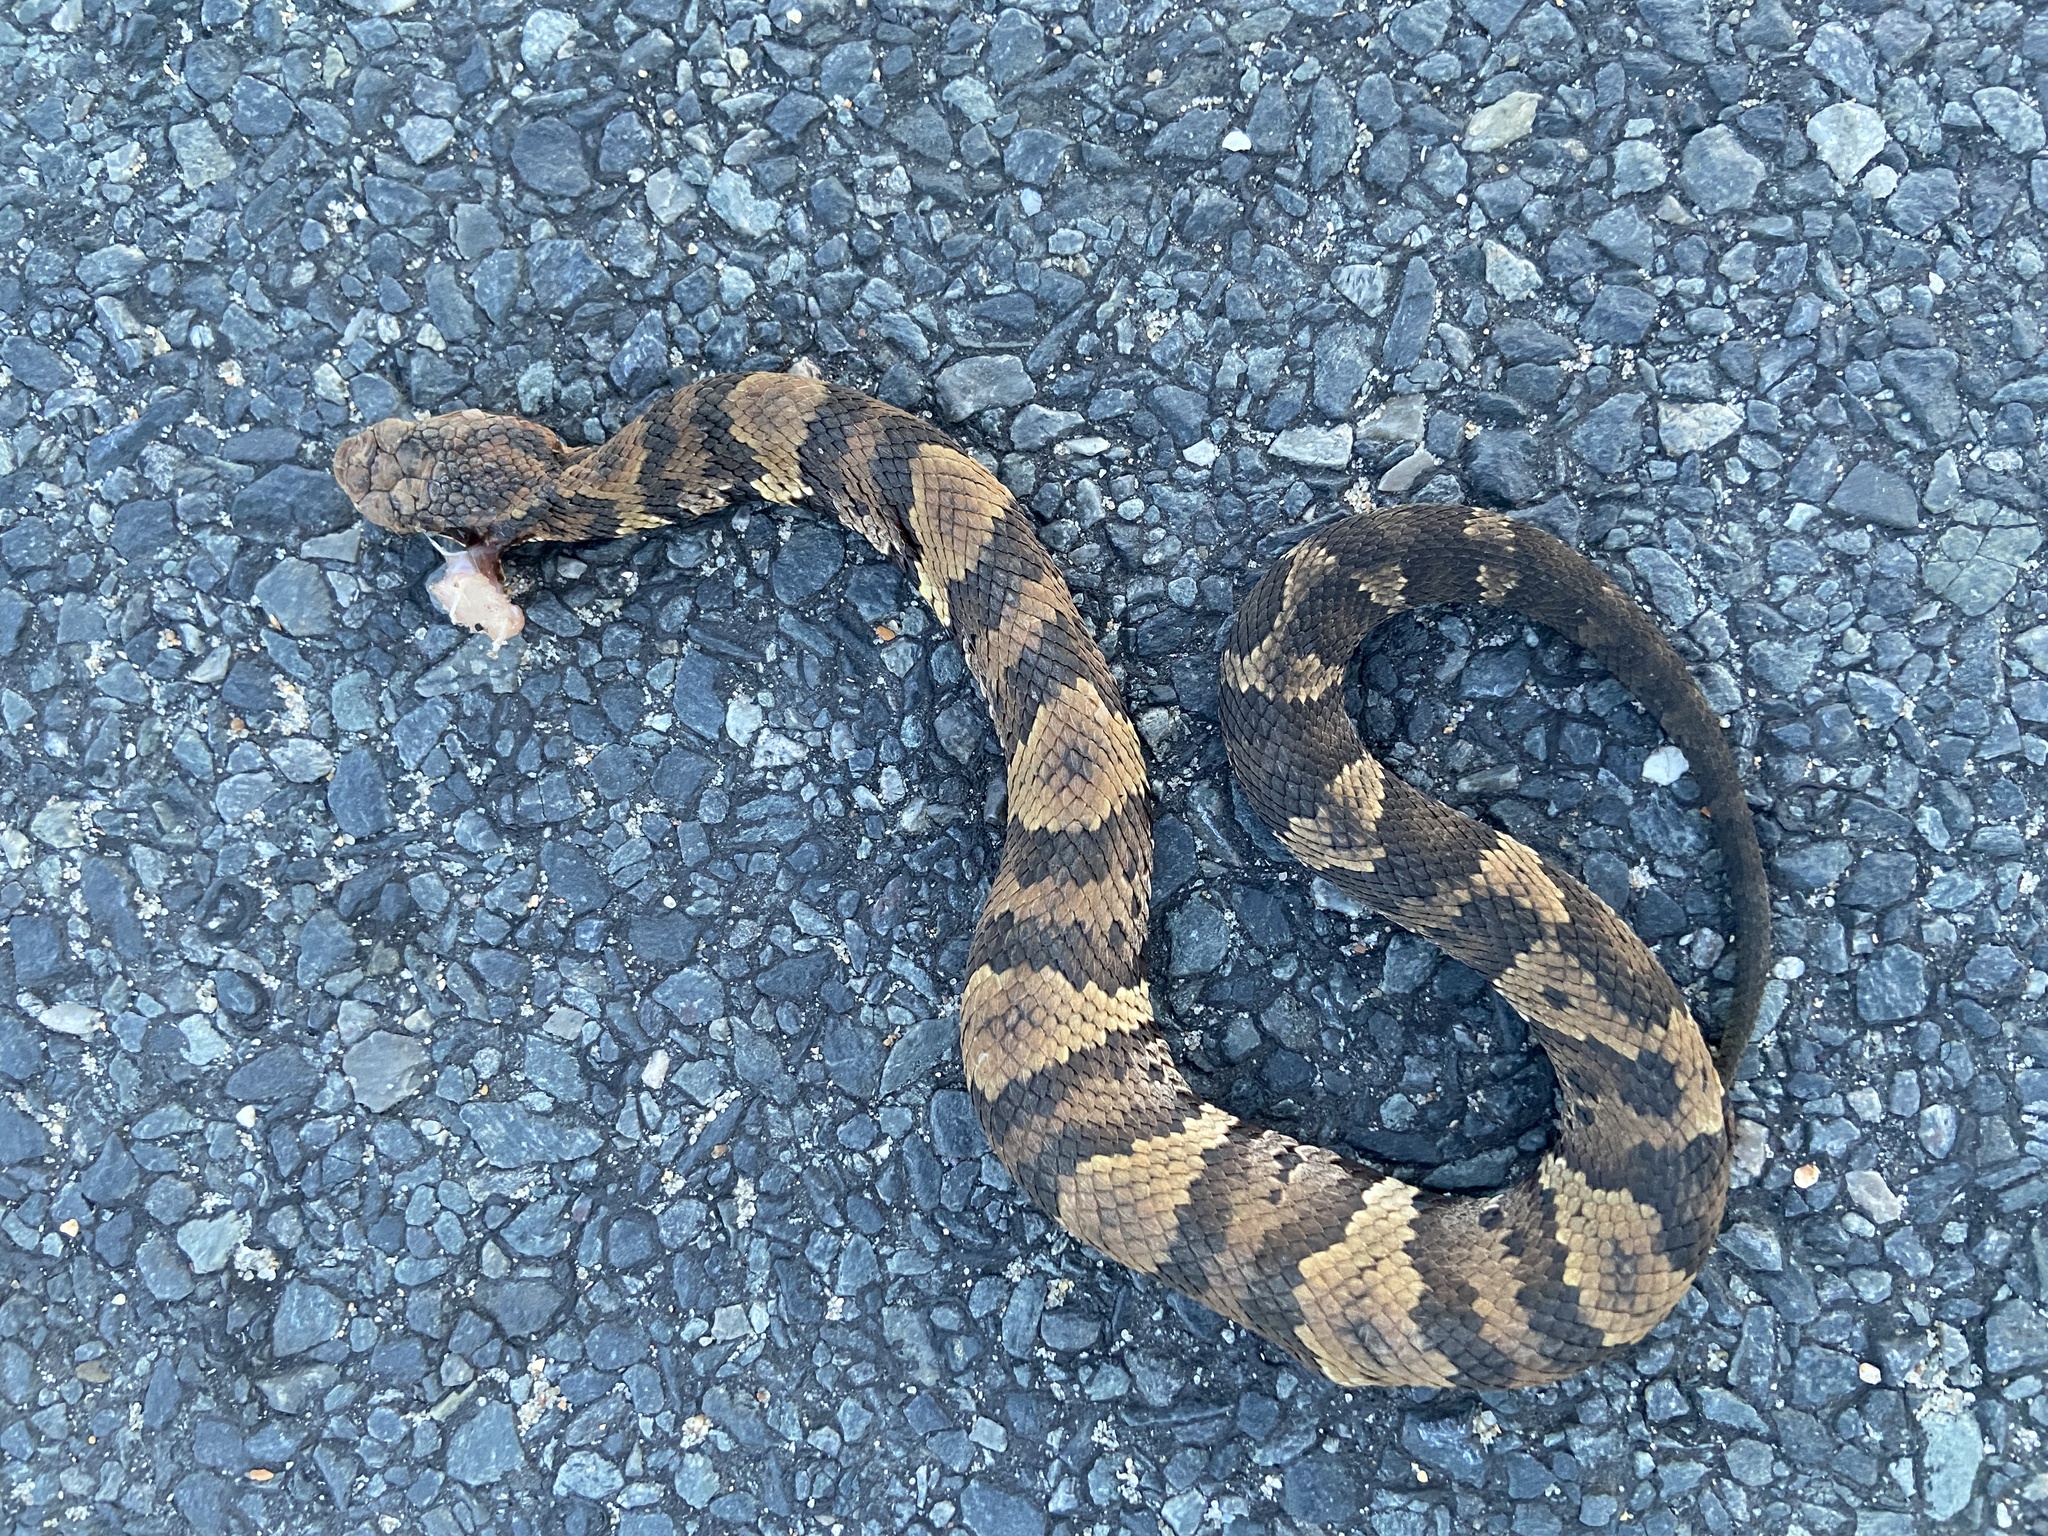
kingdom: Animalia
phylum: Chordata
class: Squamata
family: Viperidae
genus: Agkistrodon
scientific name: Agkistrodon piscivorus
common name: Cottonmouth
